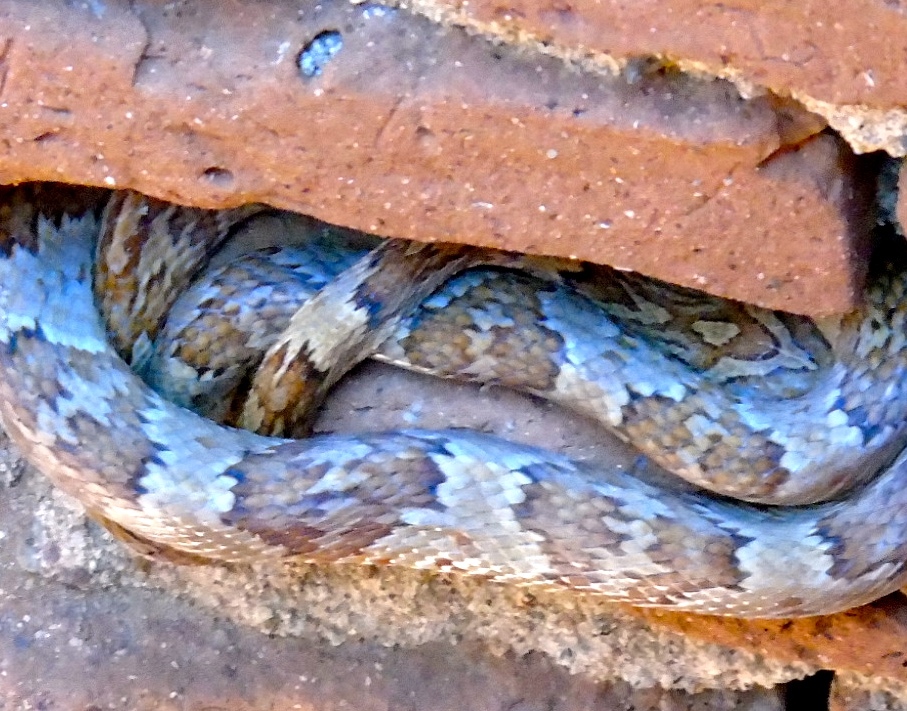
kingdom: Animalia
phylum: Chordata
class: Squamata
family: Colubridae
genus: Trimorphodon
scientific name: Trimorphodon paucimaculatus
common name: Sinaloan lyresnake
